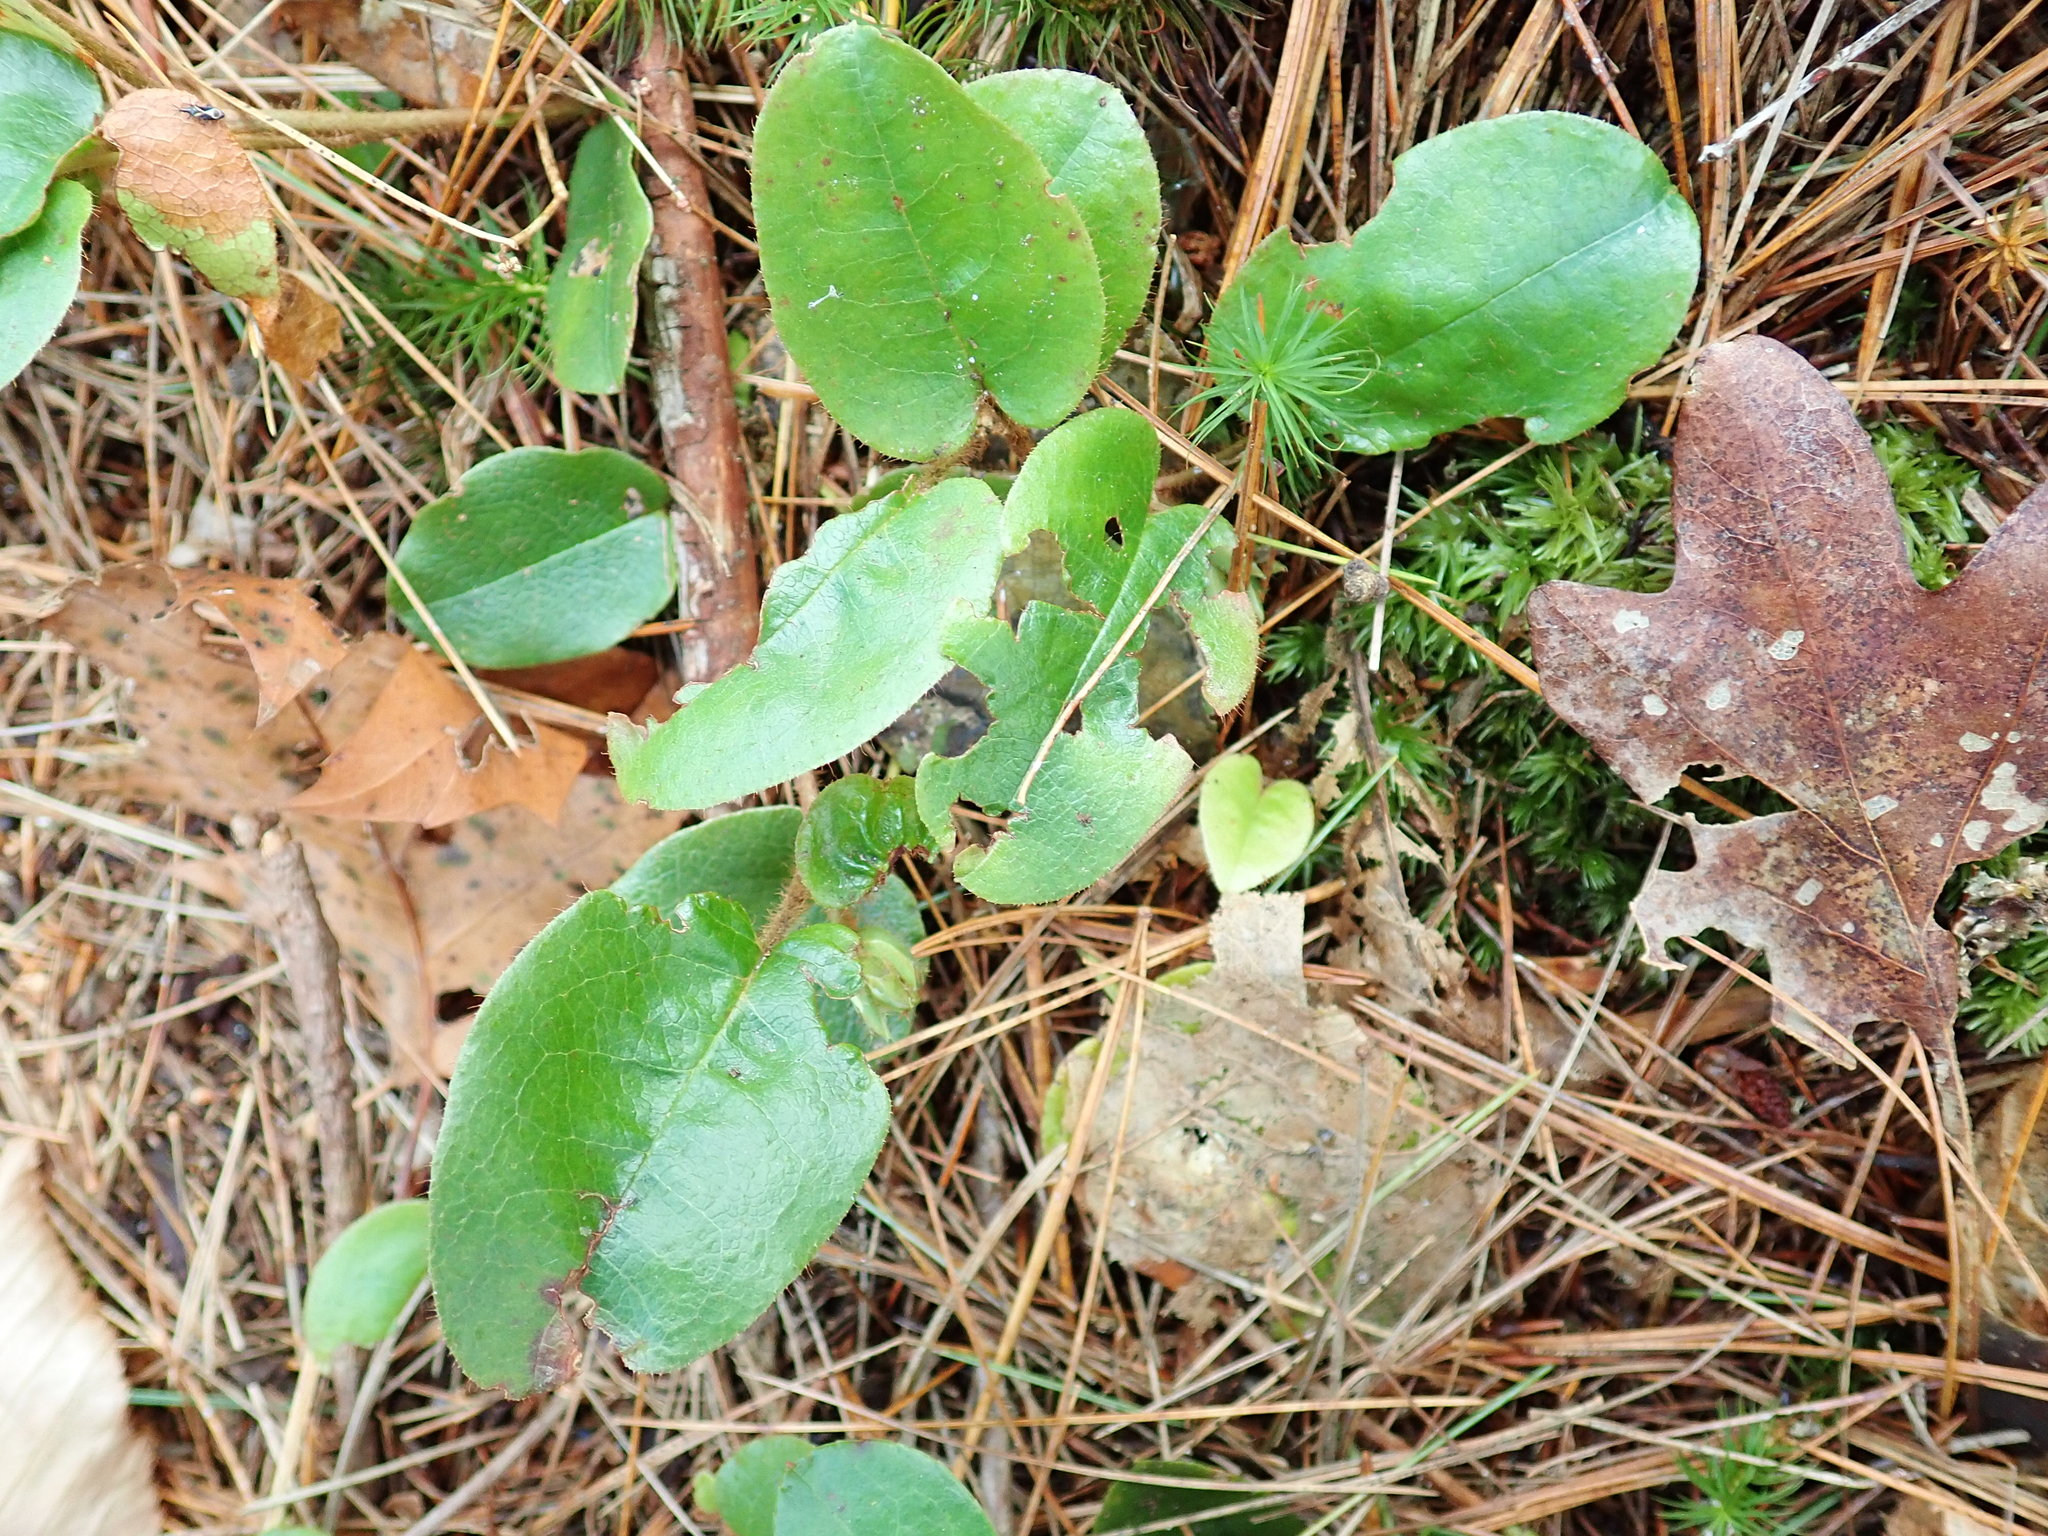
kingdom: Plantae
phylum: Tracheophyta
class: Magnoliopsida
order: Ericales
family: Ericaceae
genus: Epigaea
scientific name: Epigaea repens
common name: Gravelroot
